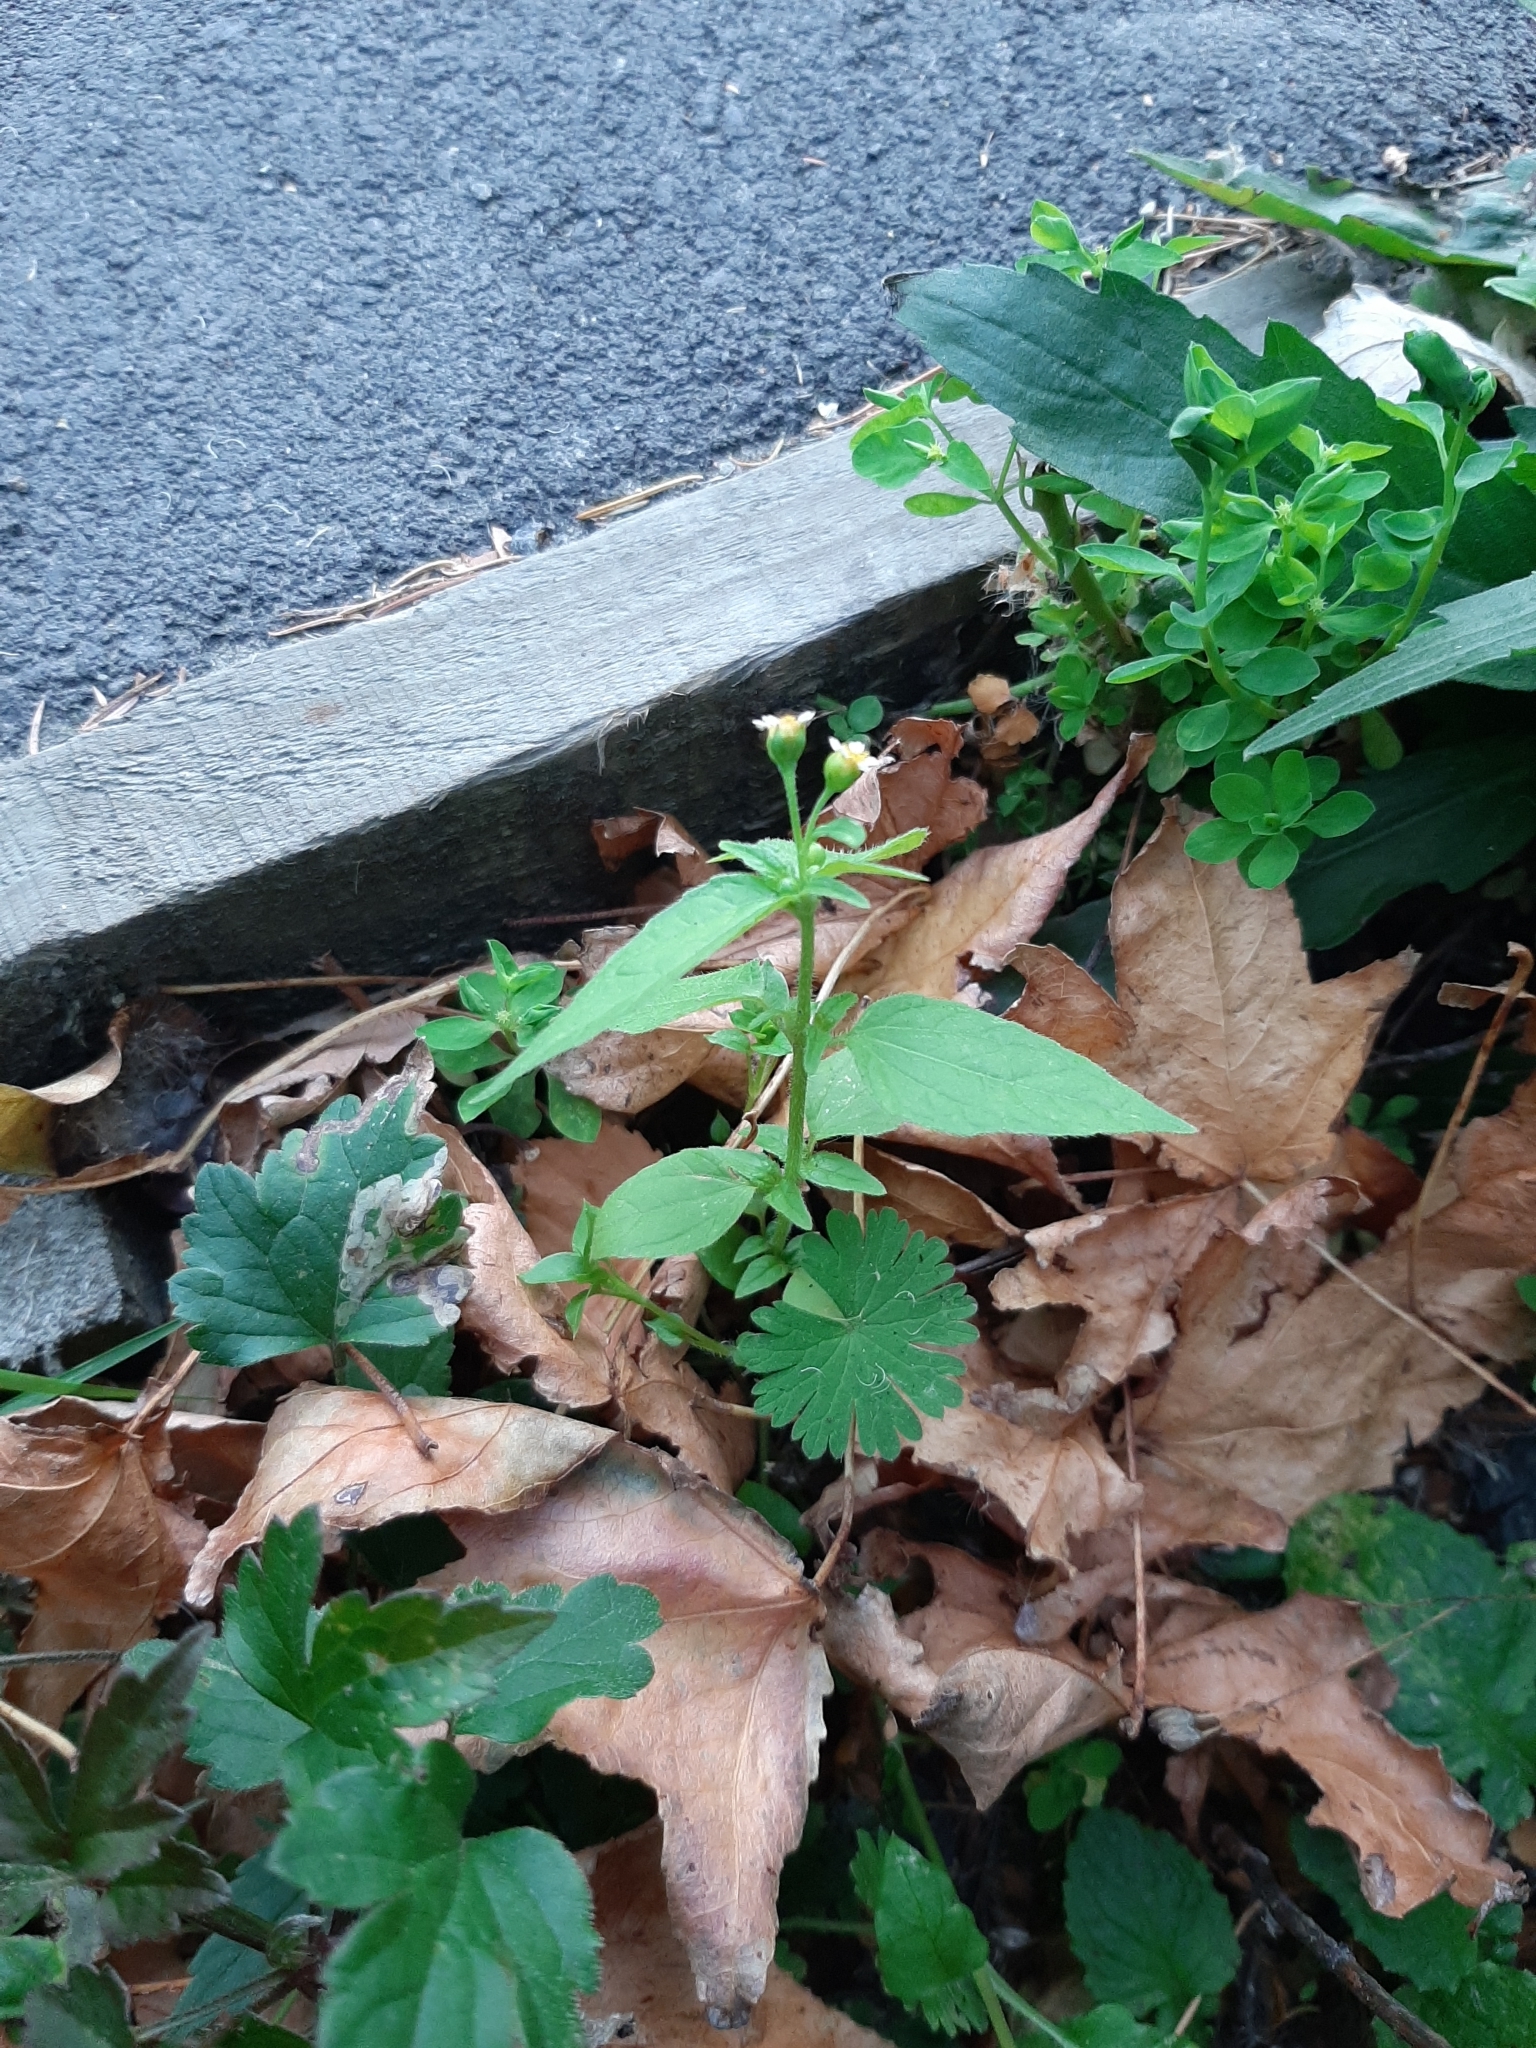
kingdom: Plantae
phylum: Tracheophyta
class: Magnoliopsida
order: Asterales
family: Asteraceae
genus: Galinsoga
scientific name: Galinsoga parviflora
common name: Gallant soldier
